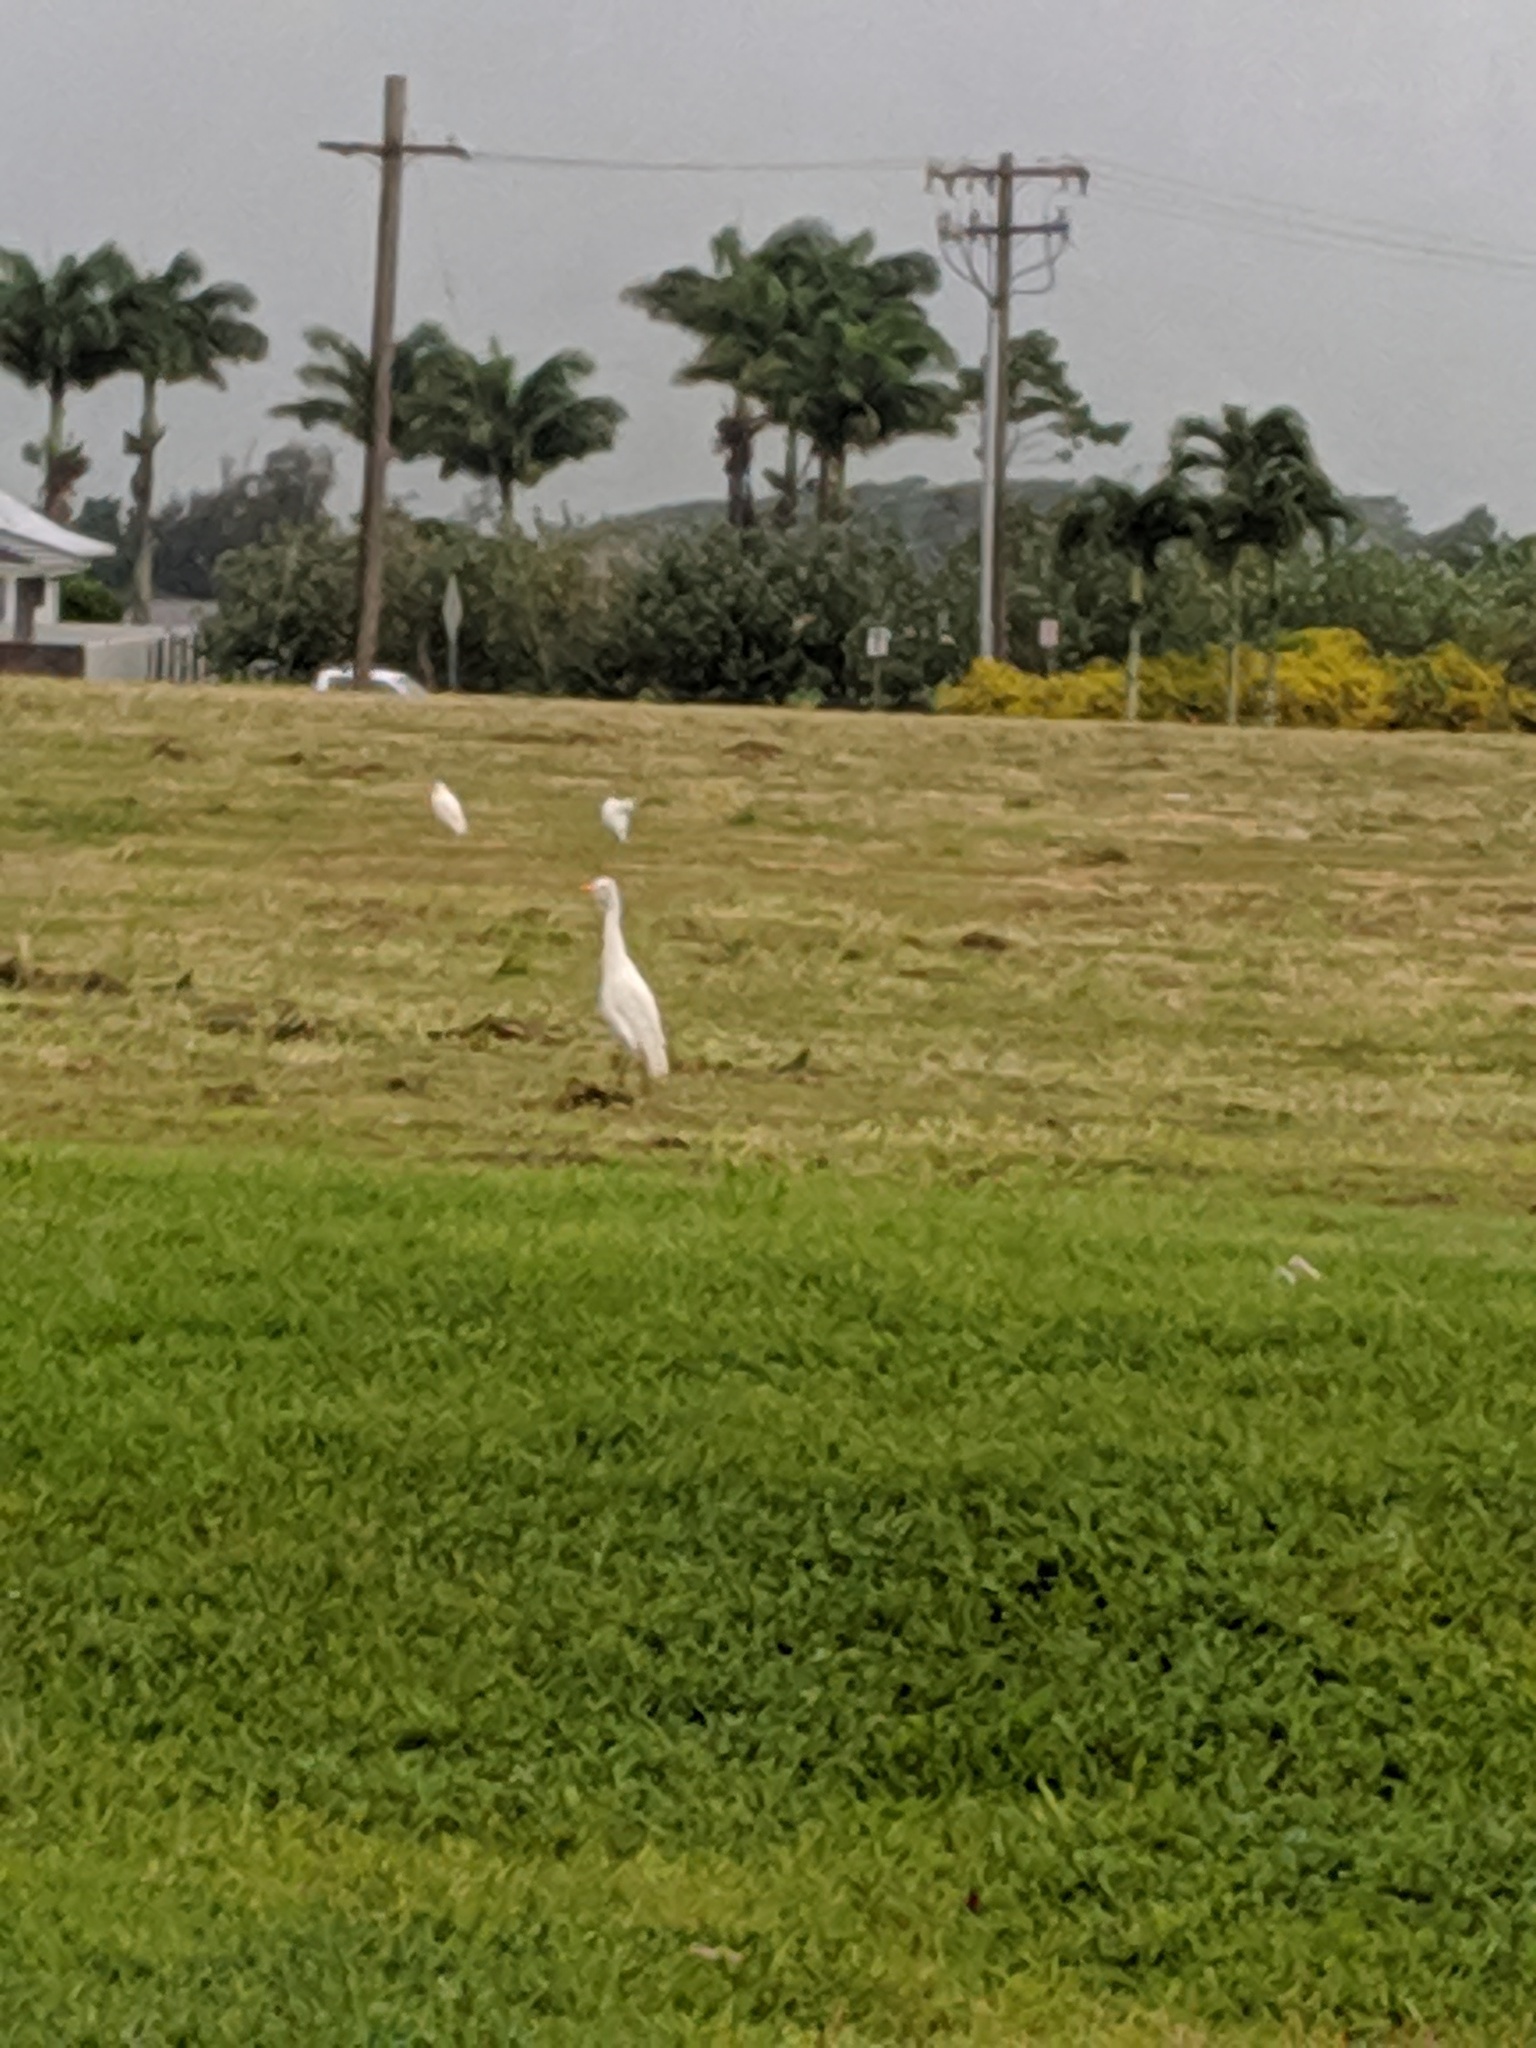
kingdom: Animalia
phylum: Chordata
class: Aves
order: Pelecaniformes
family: Ardeidae
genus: Bubulcus
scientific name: Bubulcus ibis
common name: Cattle egret
